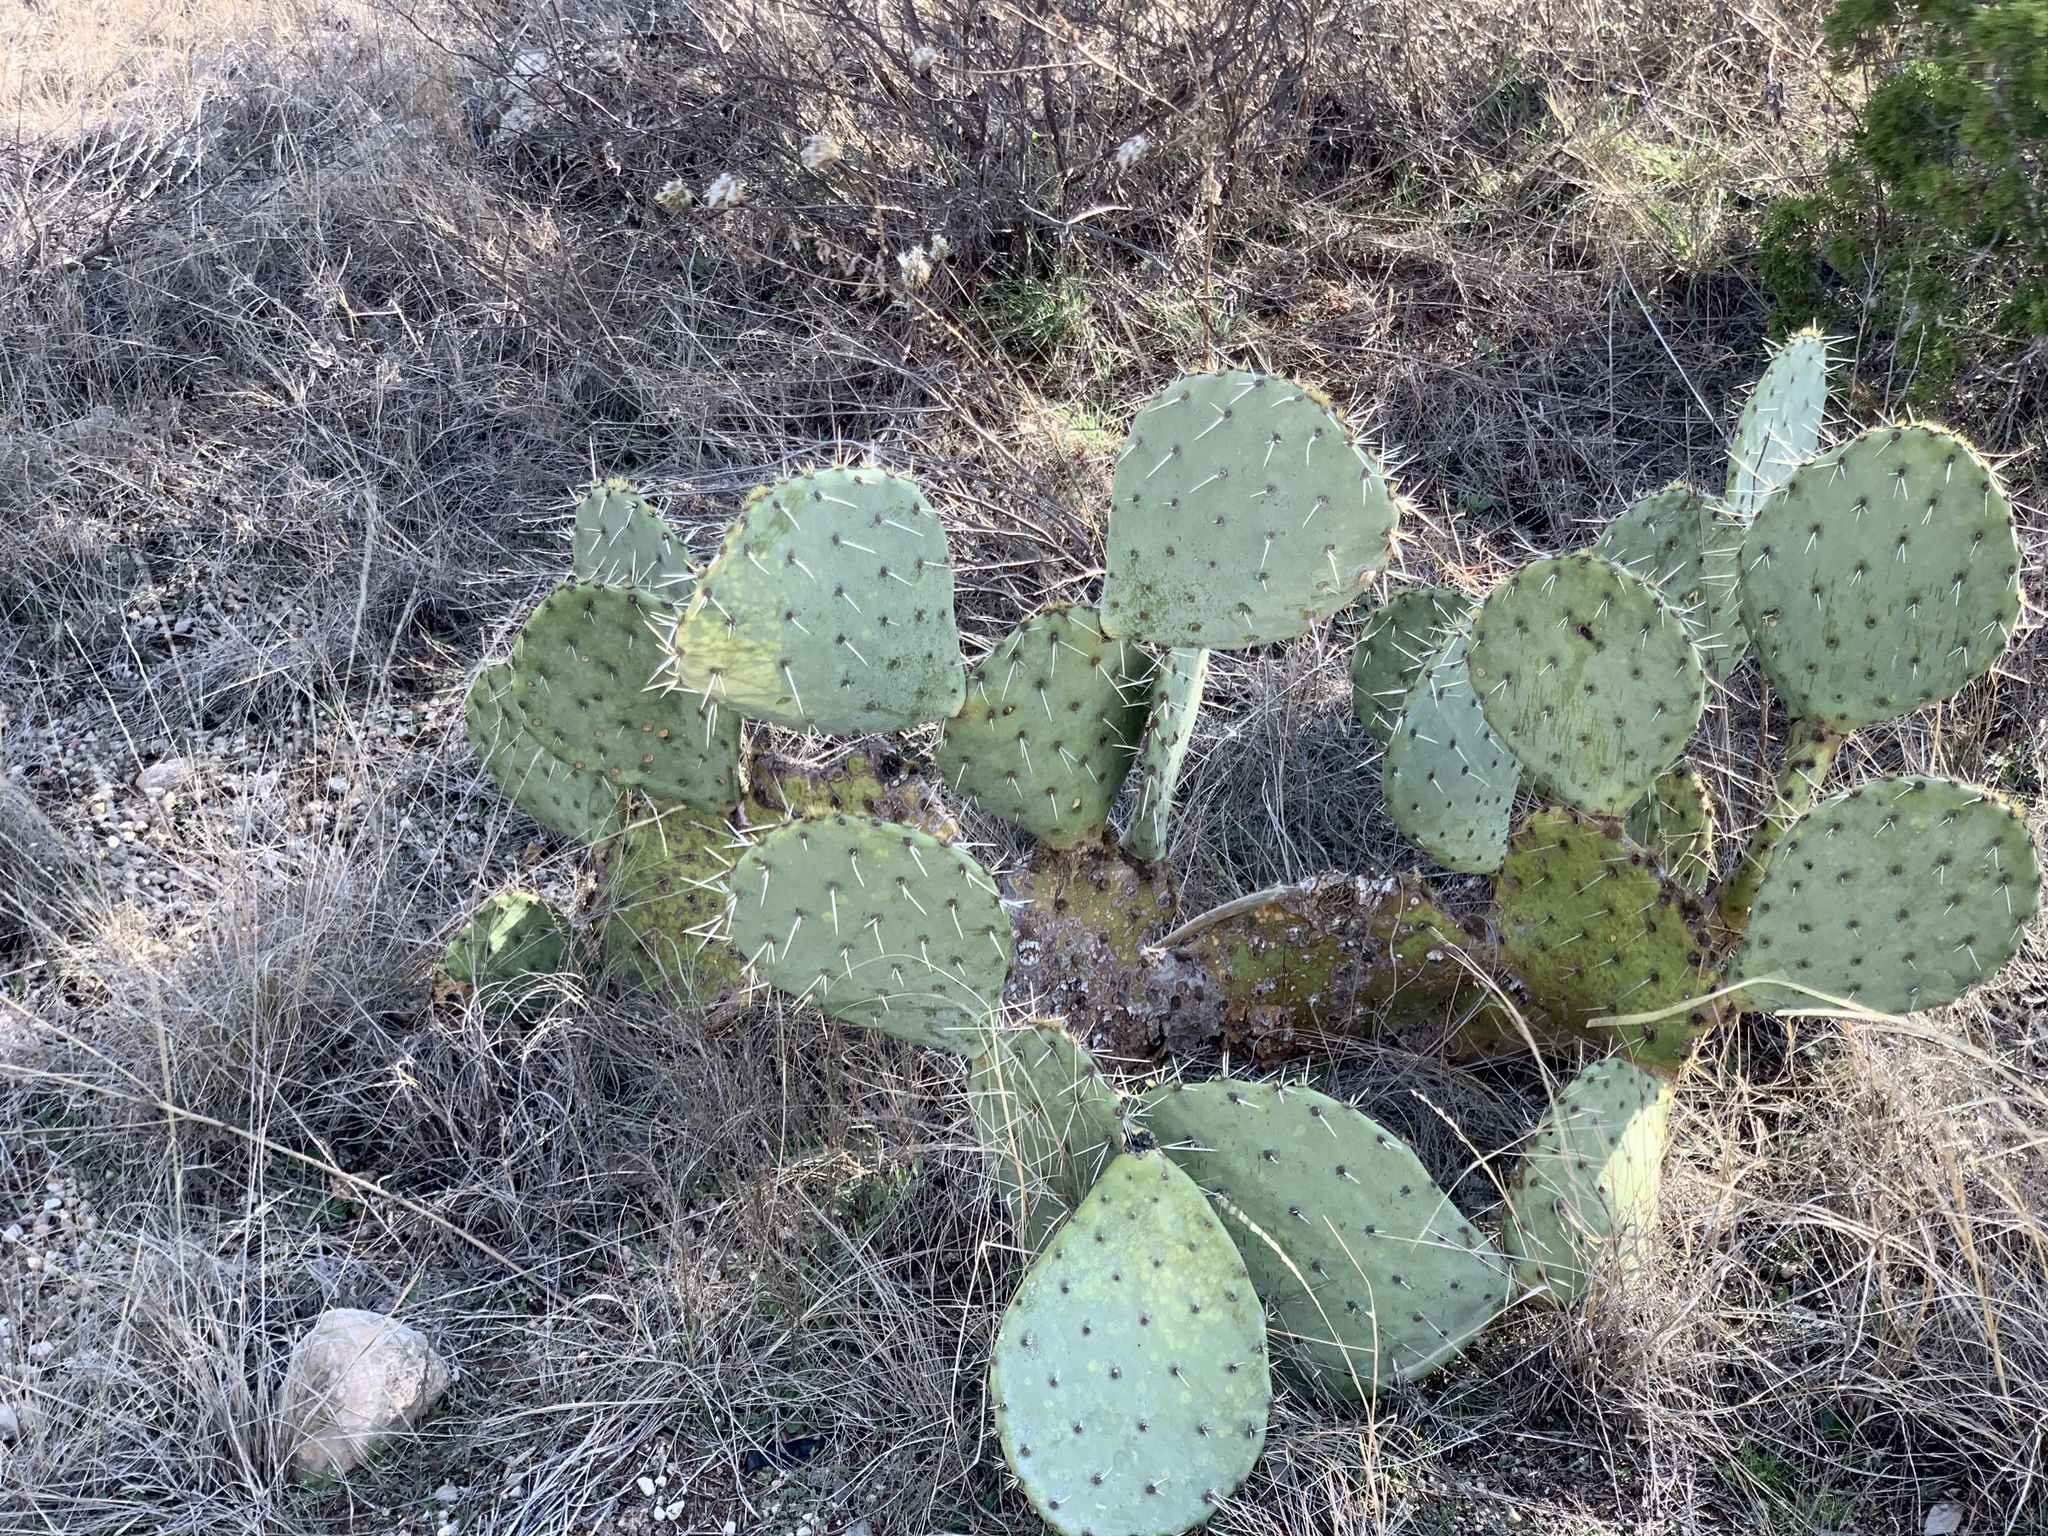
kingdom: Plantae
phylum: Tracheophyta
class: Magnoliopsida
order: Caryophyllales
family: Cactaceae
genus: Opuntia
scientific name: Opuntia engelmannii
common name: Cactus-apple
